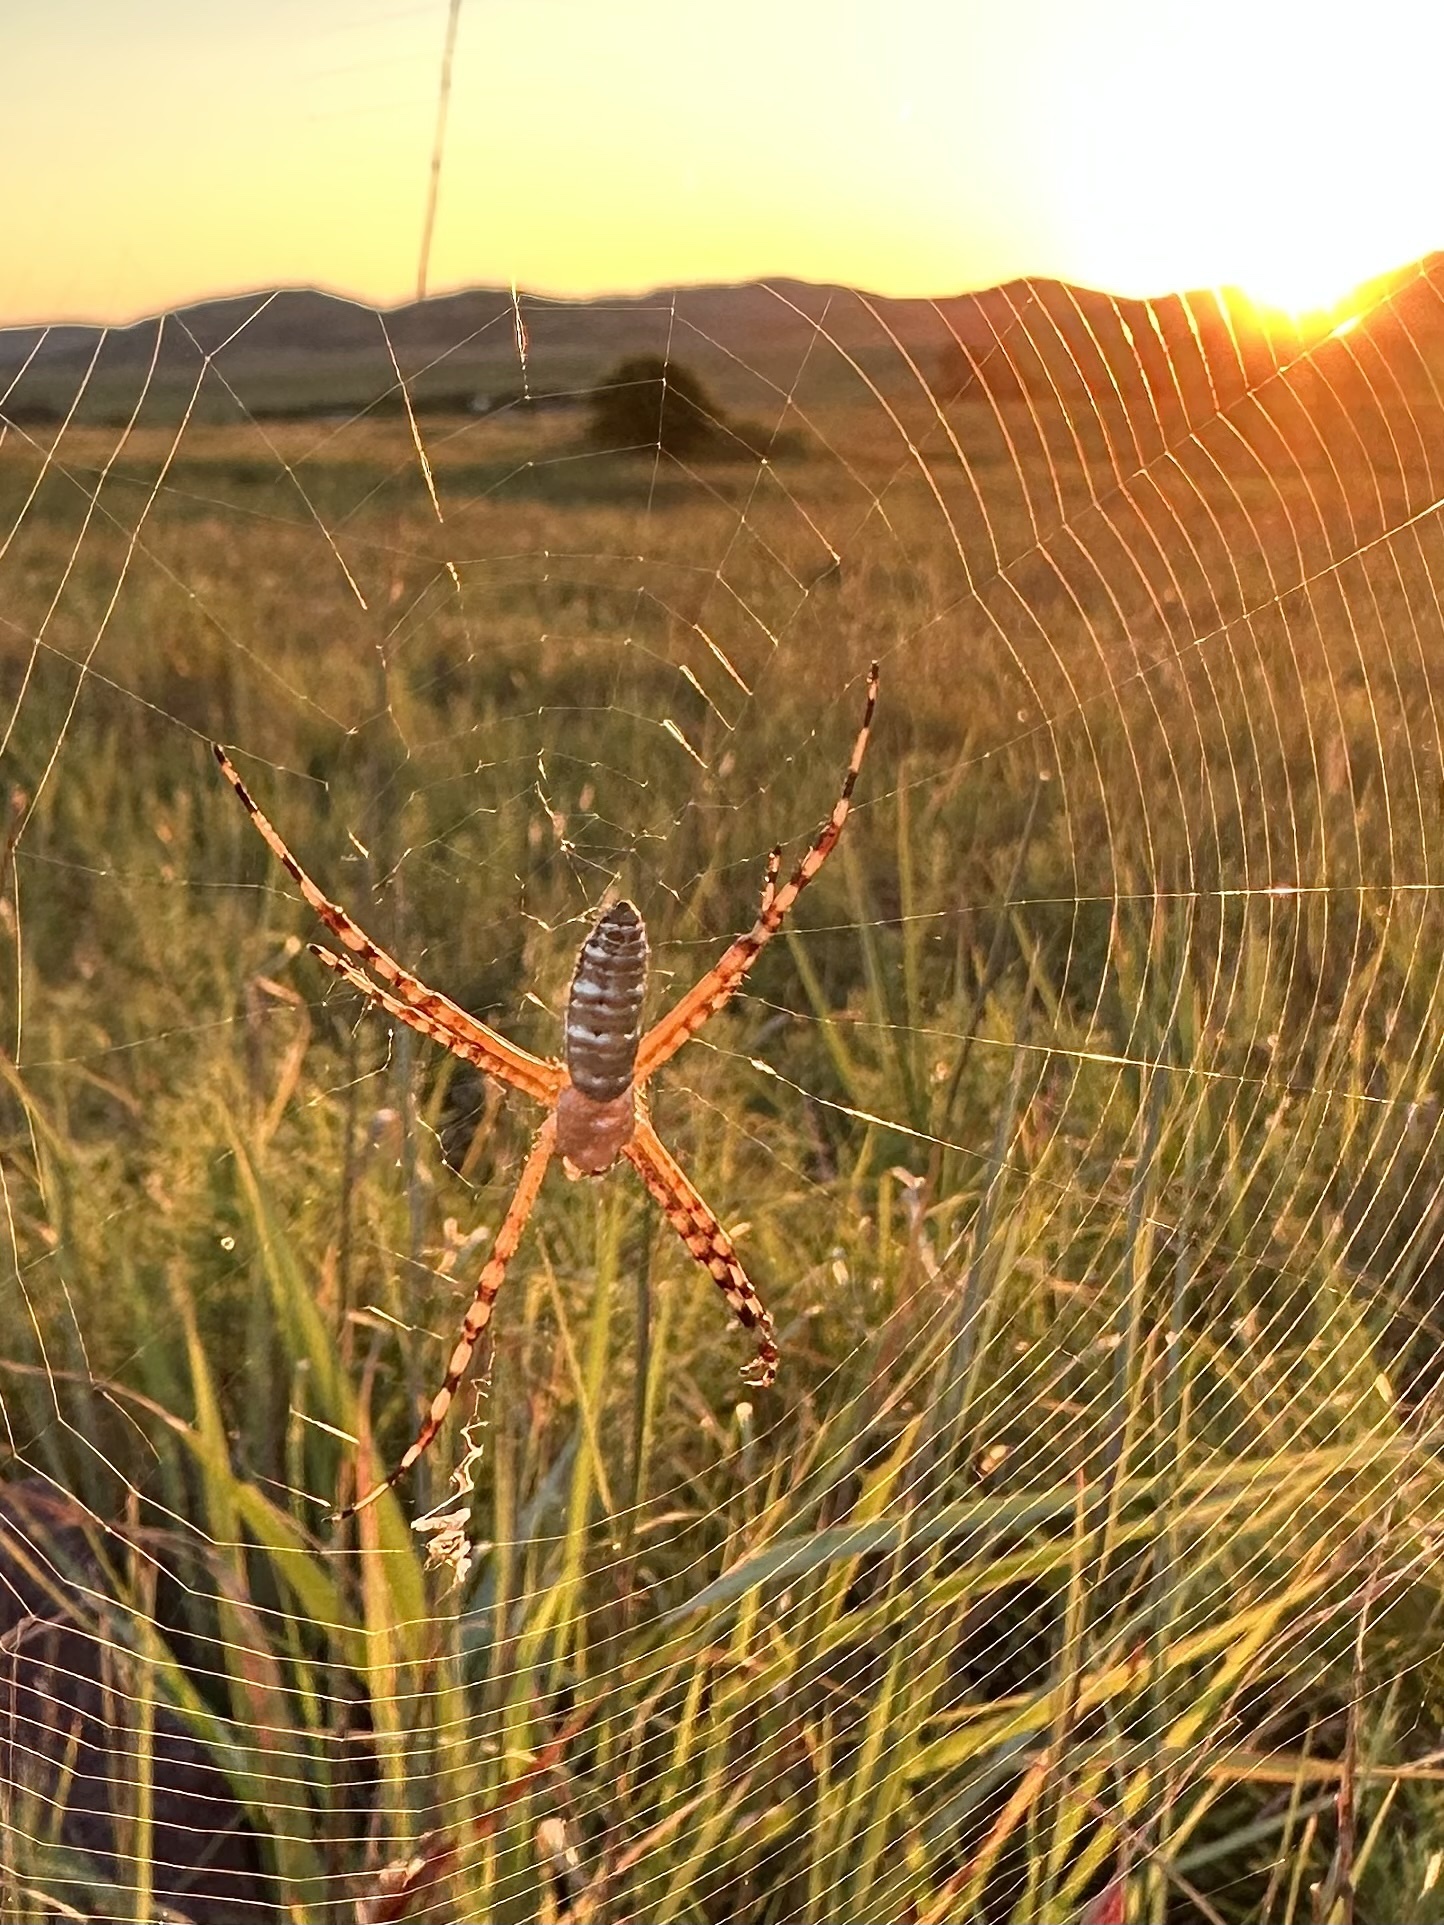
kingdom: Animalia
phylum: Arthropoda
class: Arachnida
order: Araneae
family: Araneidae
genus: Argiope
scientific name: Argiope trifasciata
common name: Banded garden spider
